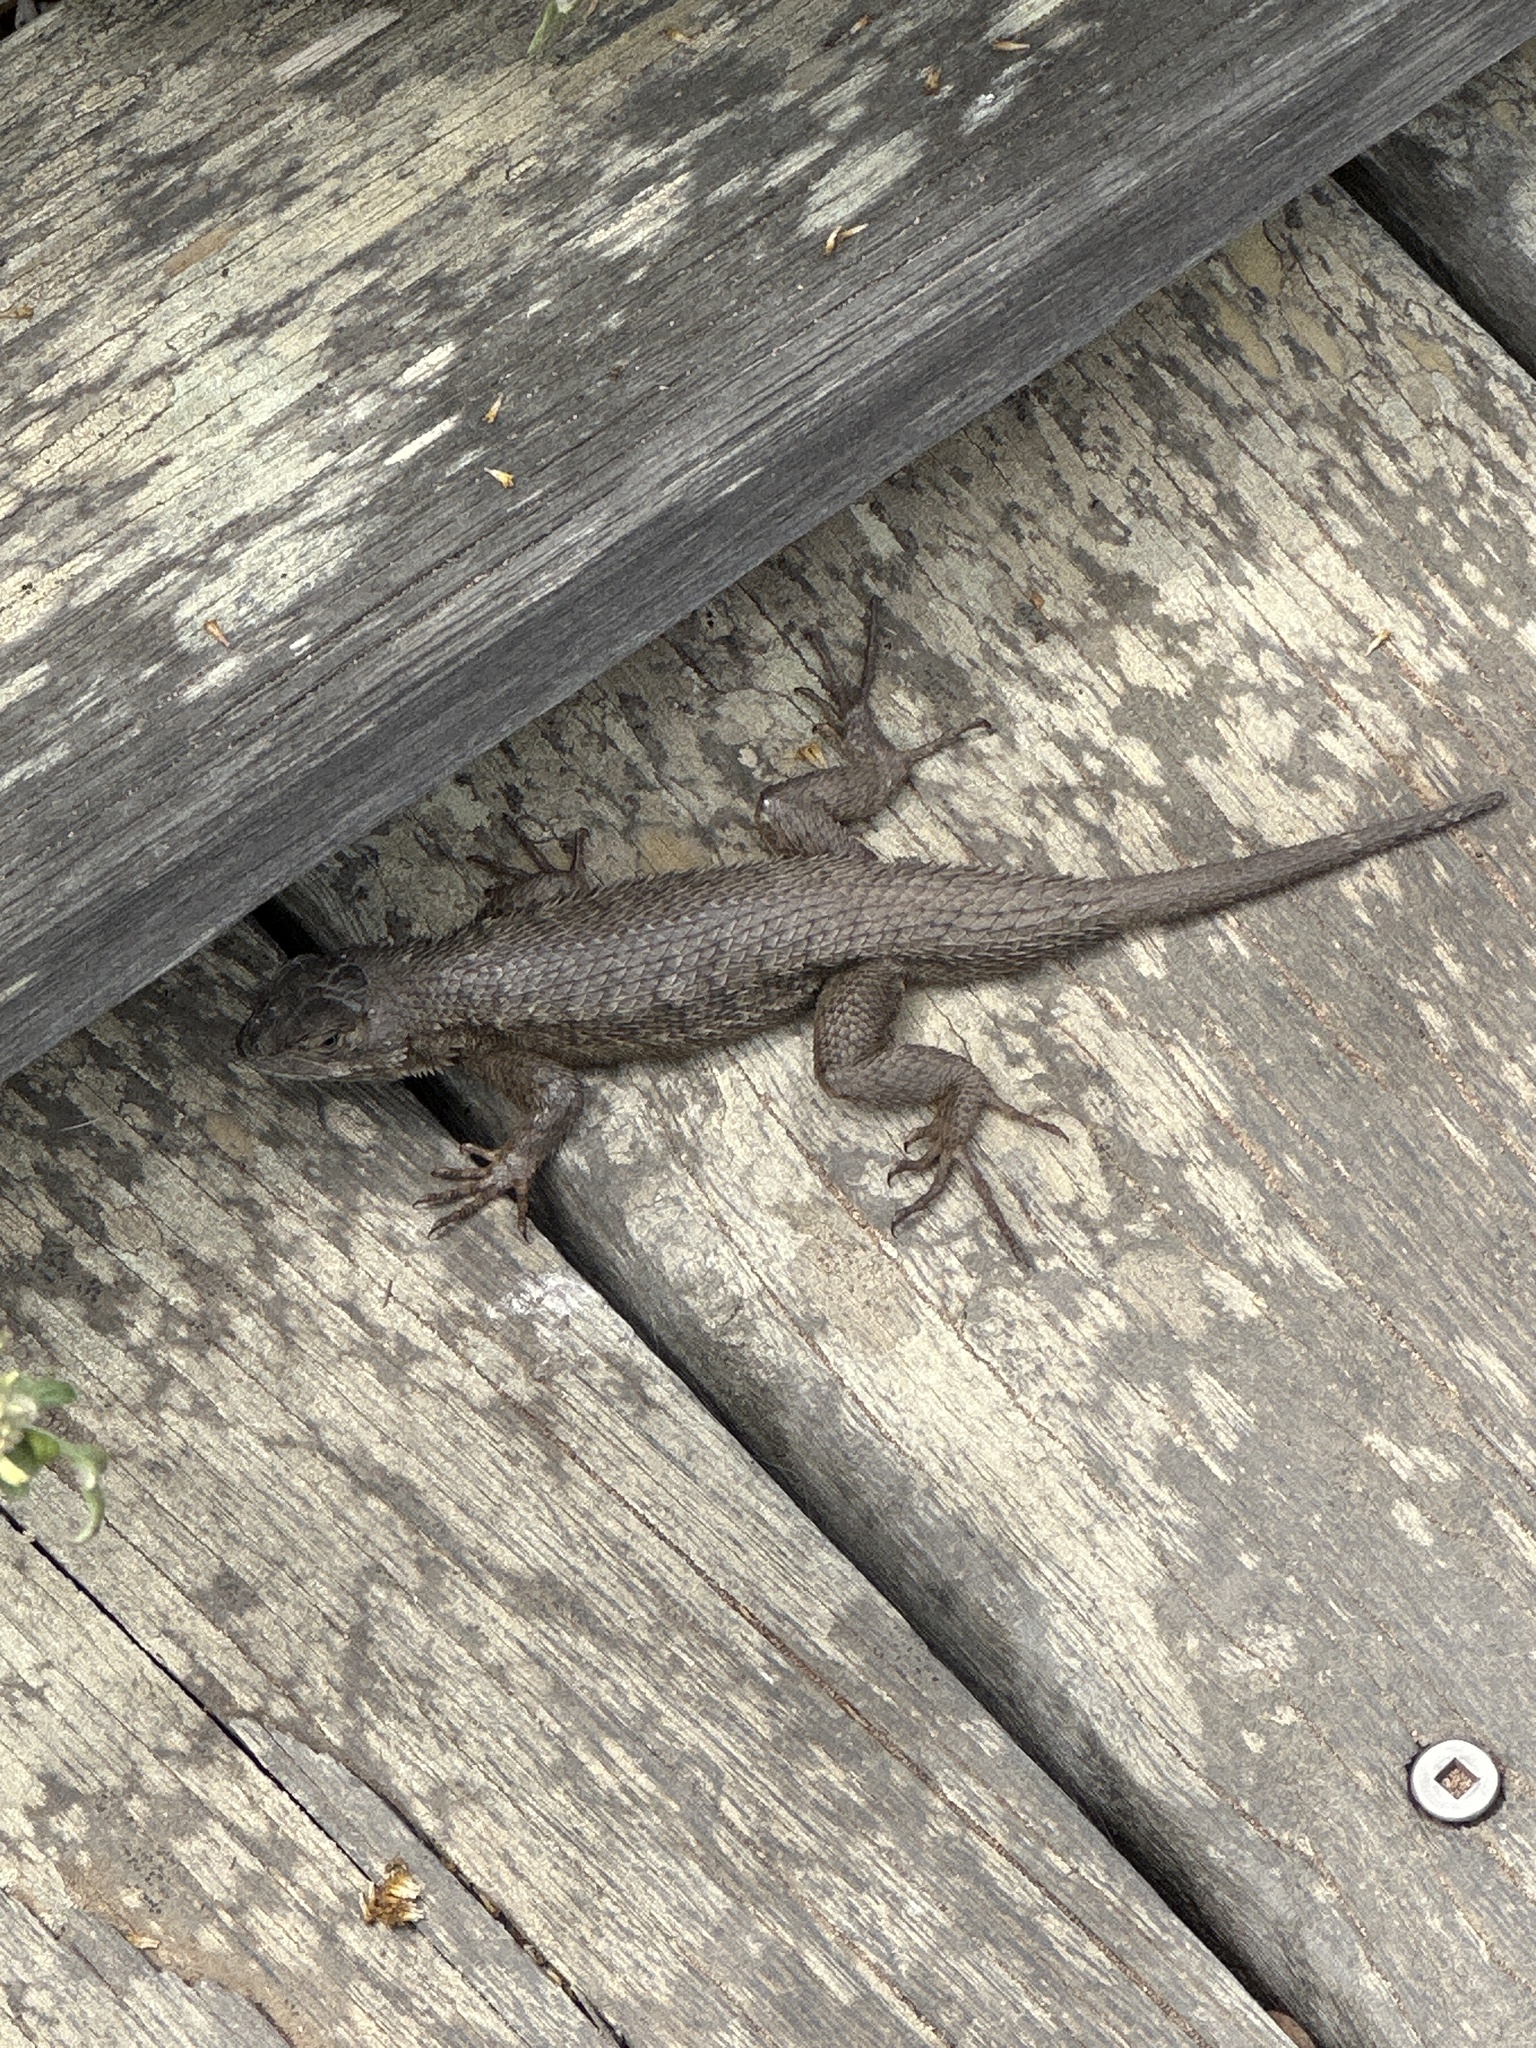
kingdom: Animalia
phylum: Chordata
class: Squamata
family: Phrynosomatidae
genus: Sceloporus
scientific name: Sceloporus occidentalis
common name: Western fence lizard
